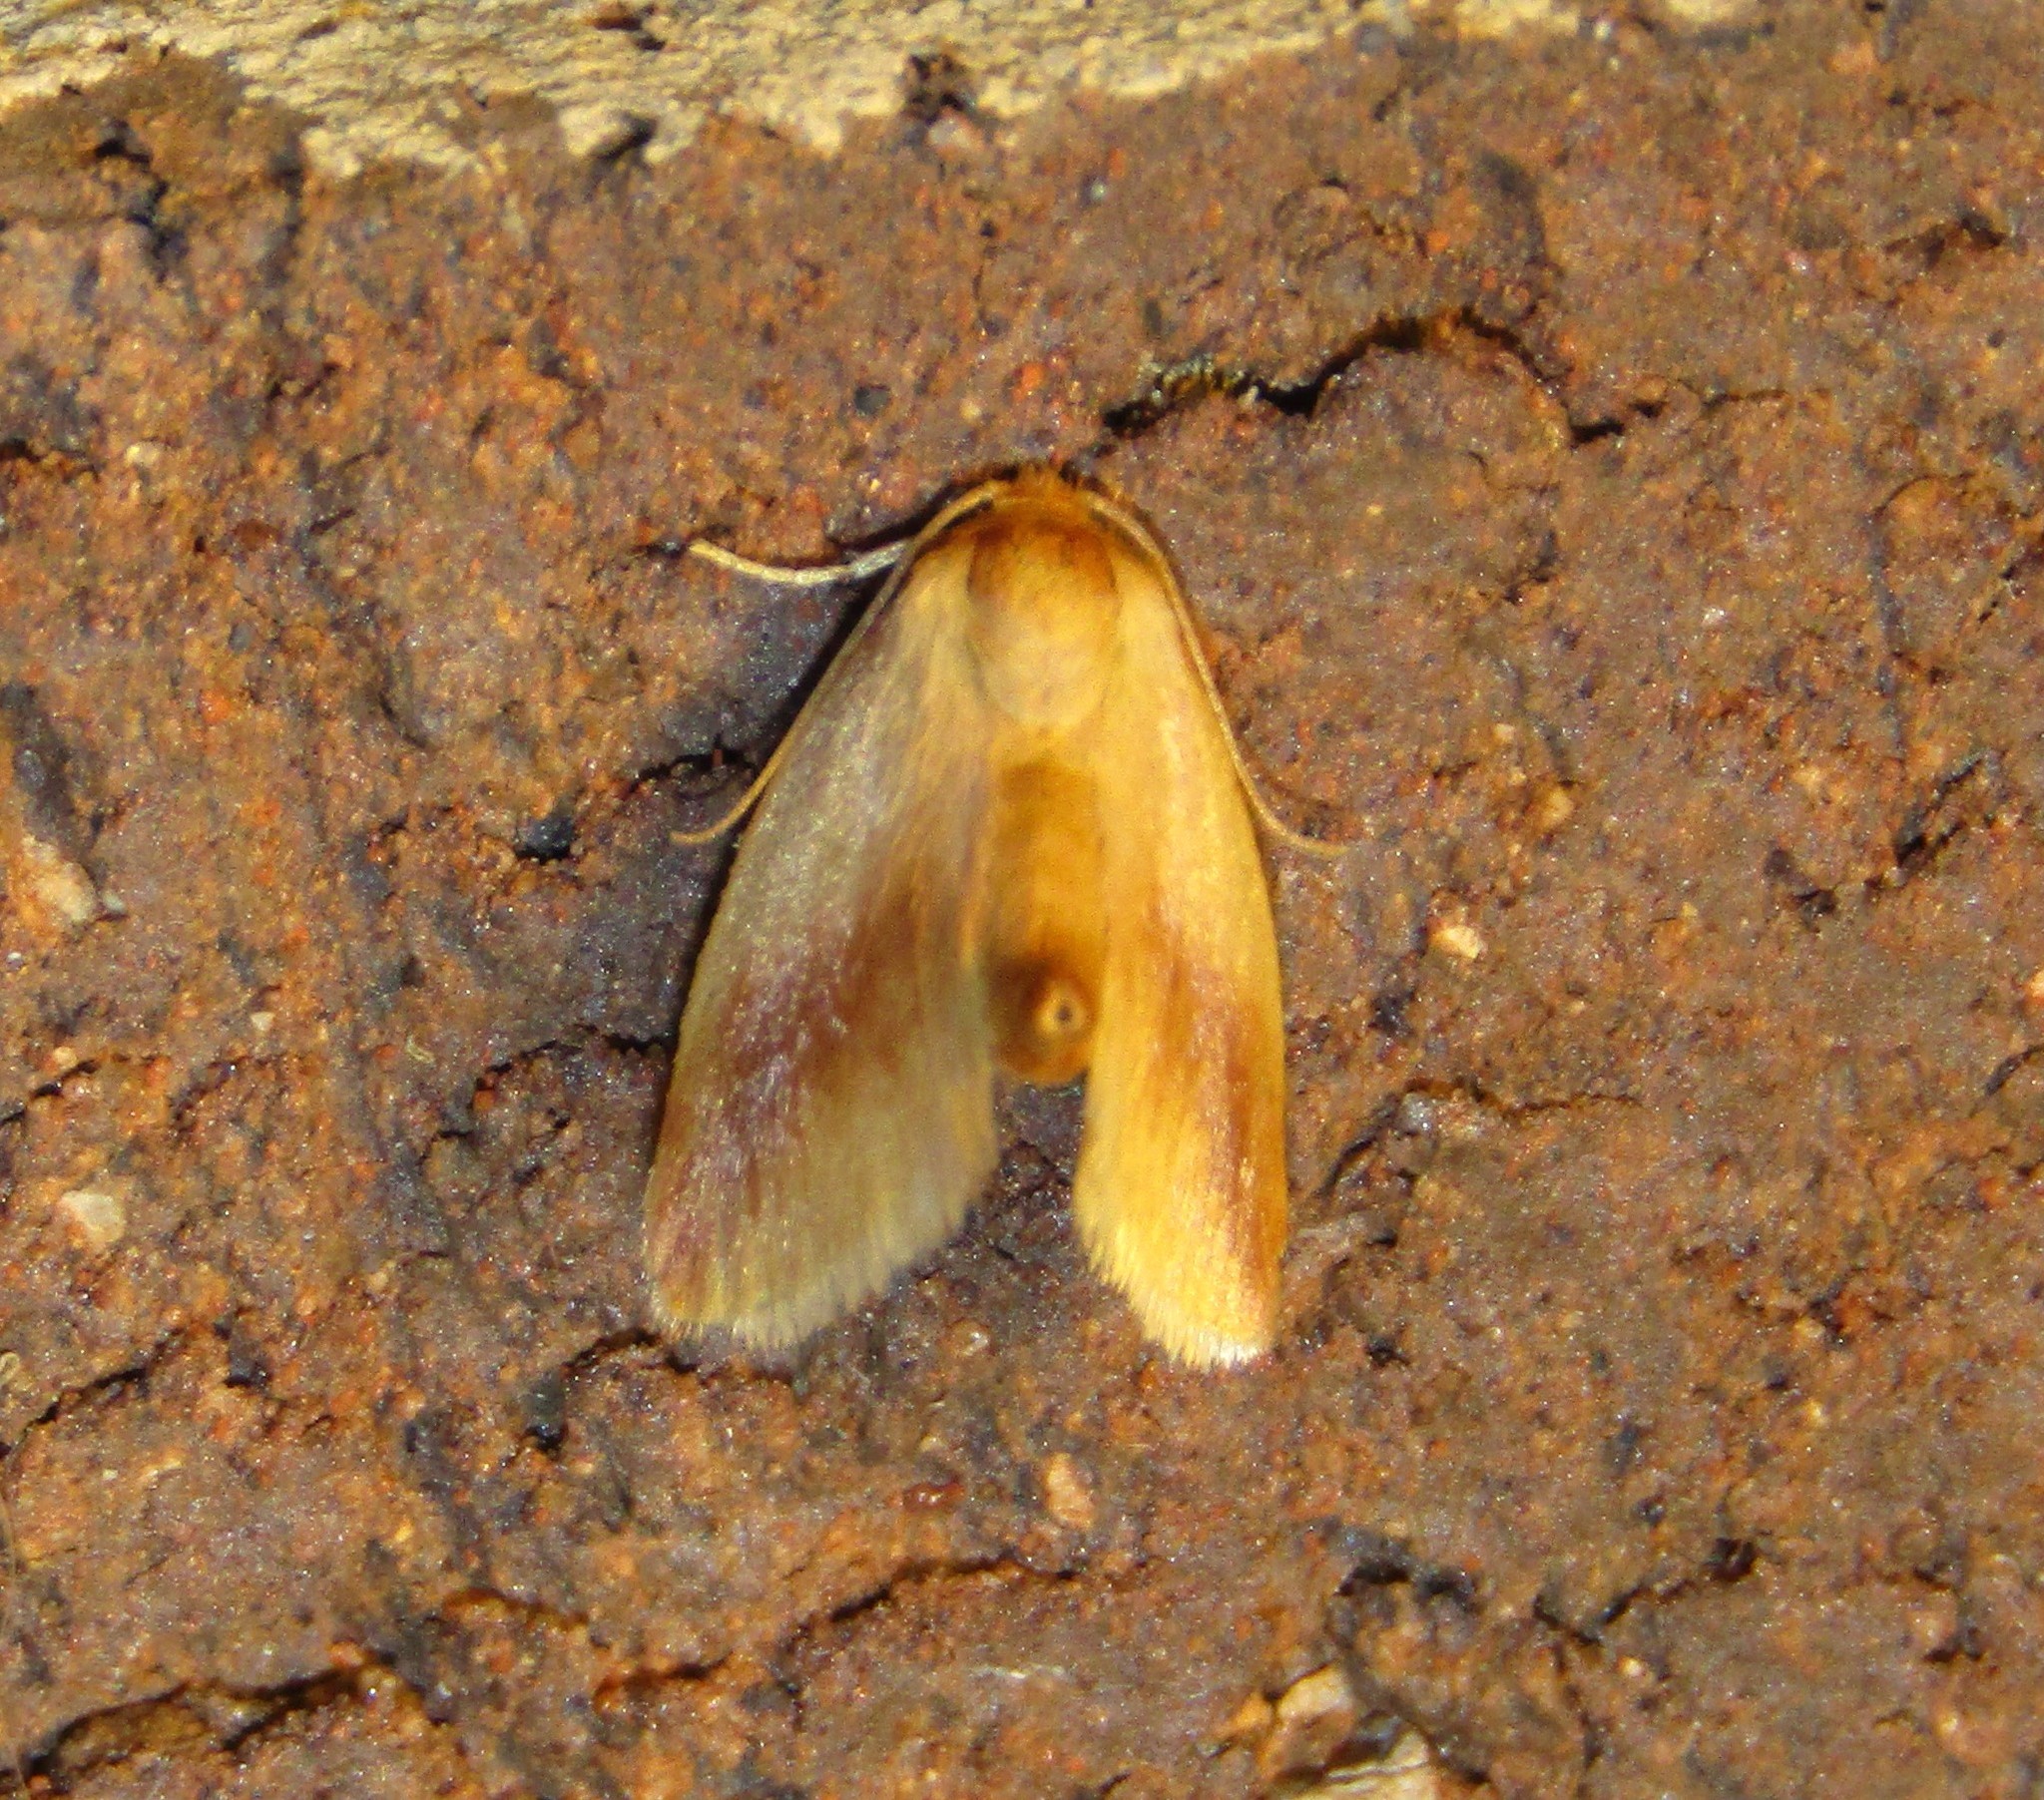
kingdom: Animalia
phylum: Arthropoda
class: Insecta
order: Lepidoptera
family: Limacodidae
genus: Tortricidia
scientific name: Tortricidia testacea
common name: Early button slug moth
